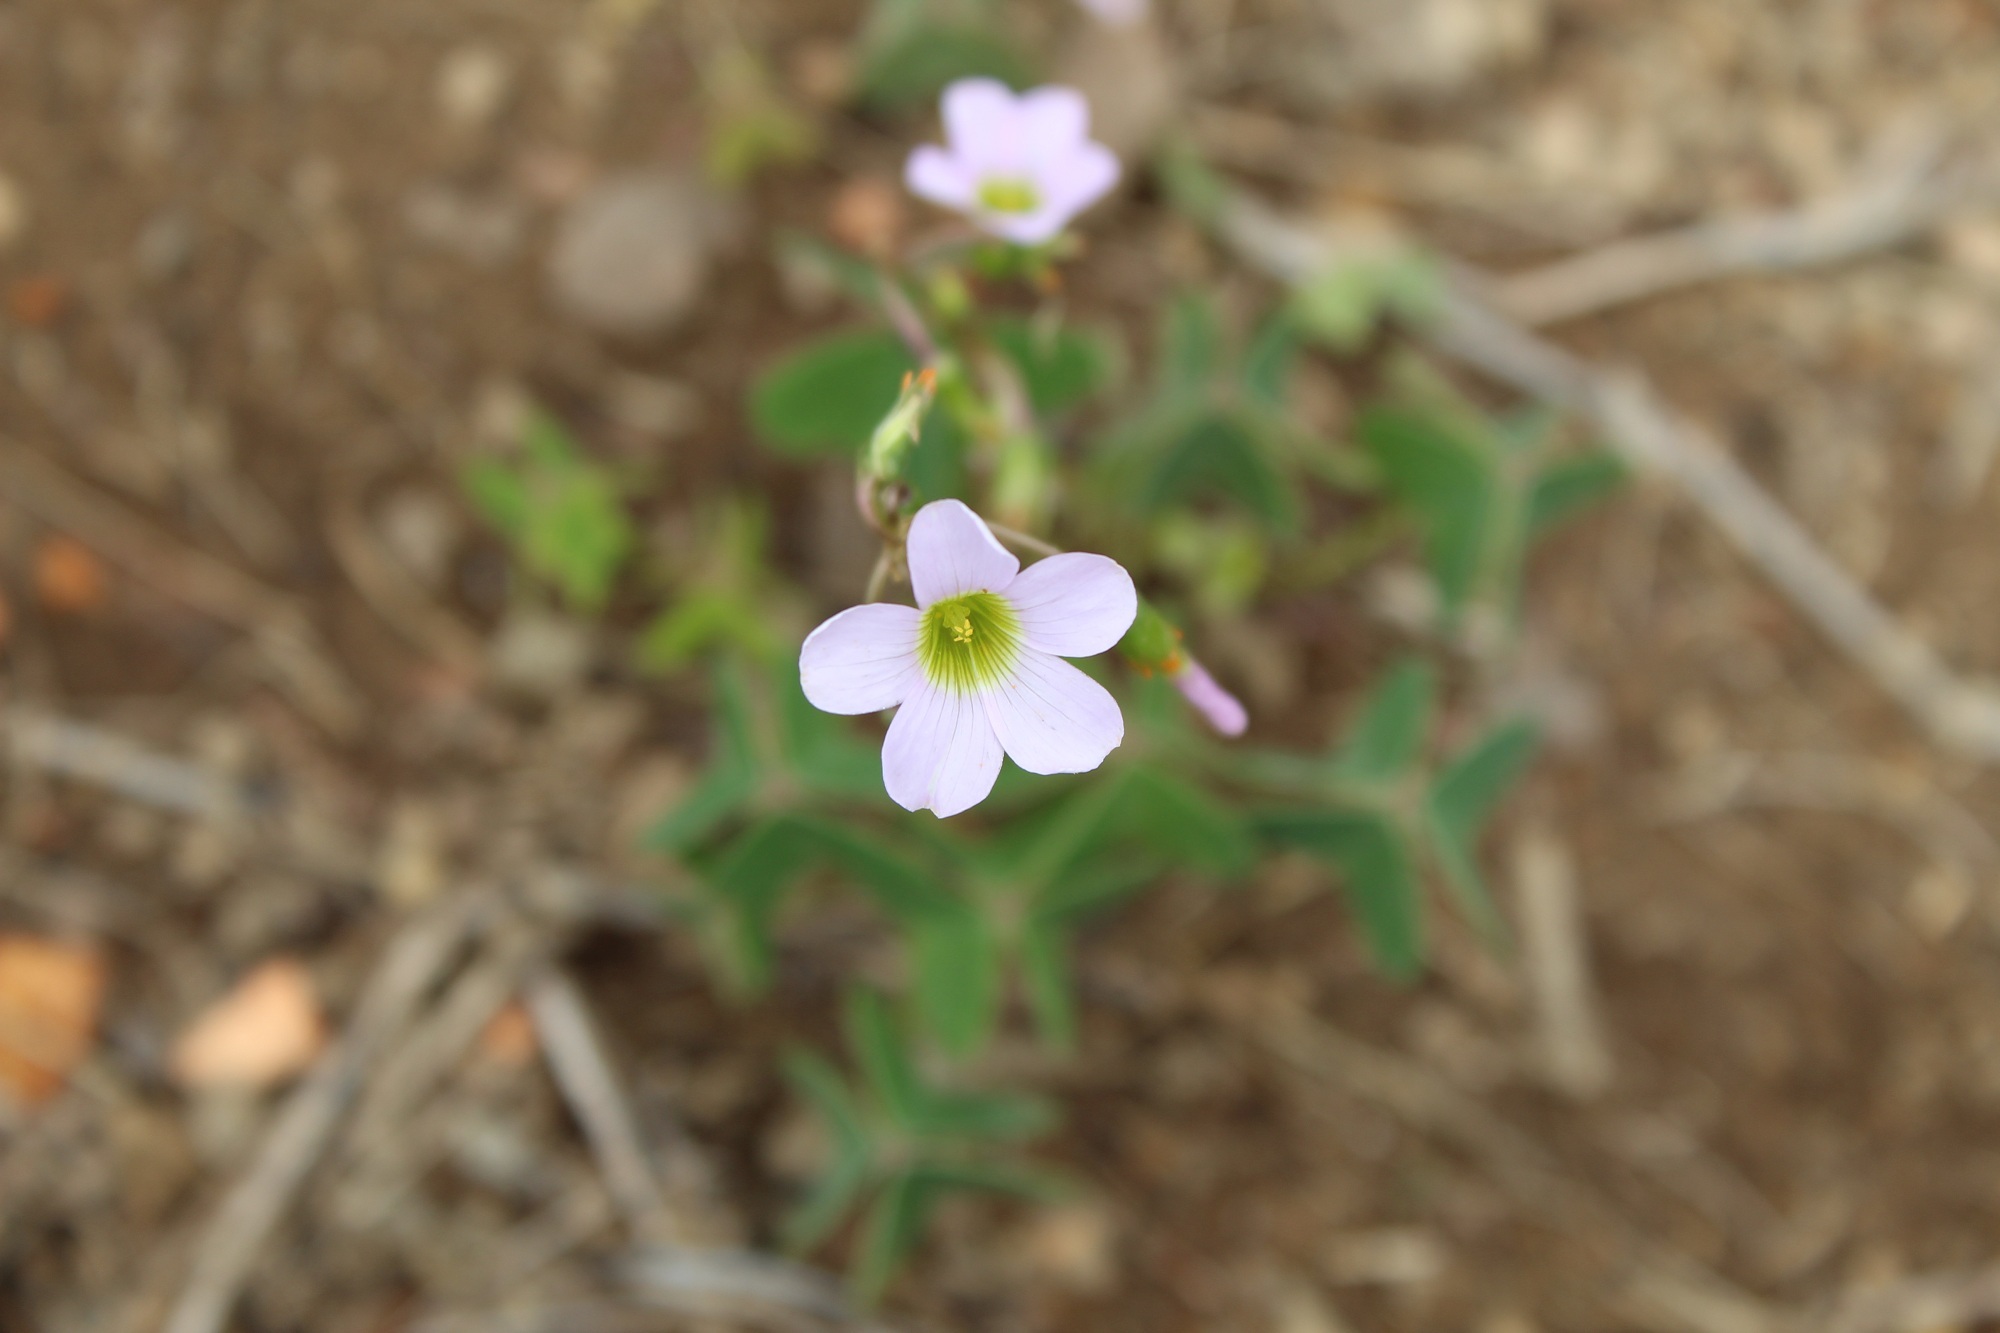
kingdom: Plantae
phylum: Tracheophyta
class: Magnoliopsida
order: Oxalidales
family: Oxalidaceae
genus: Oxalis
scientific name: Oxalis cuatrecasasii
